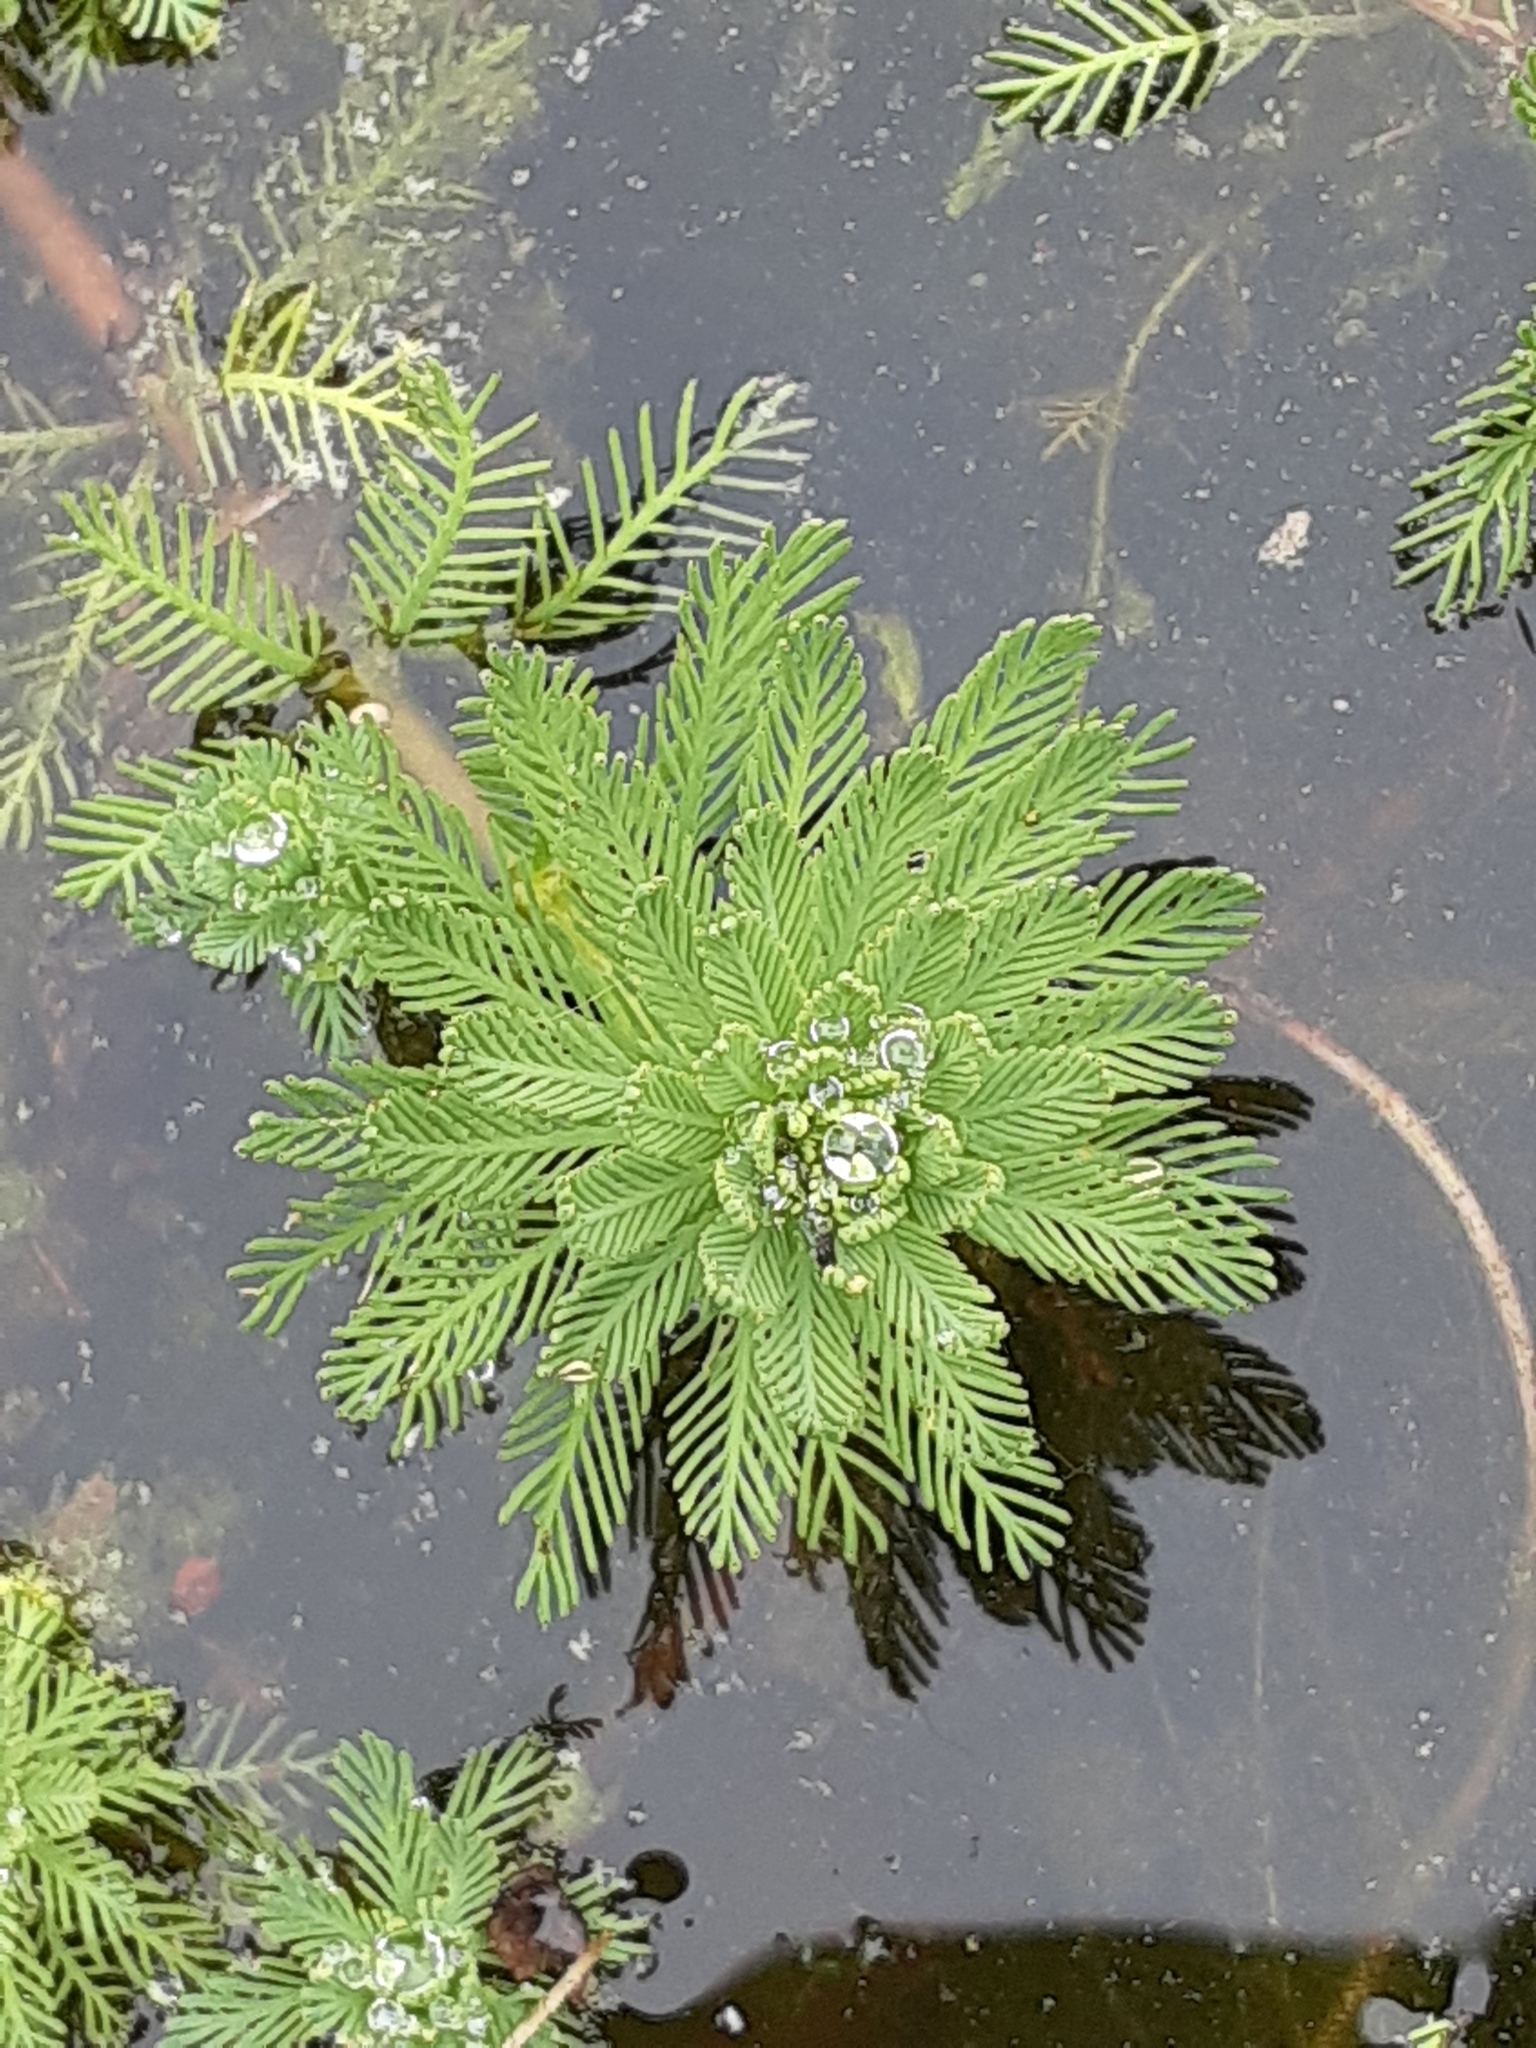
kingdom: Plantae
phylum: Tracheophyta
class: Magnoliopsida
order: Saxifragales
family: Haloragaceae
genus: Myriophyllum
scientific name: Myriophyllum aquaticum
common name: Parrot's feather
